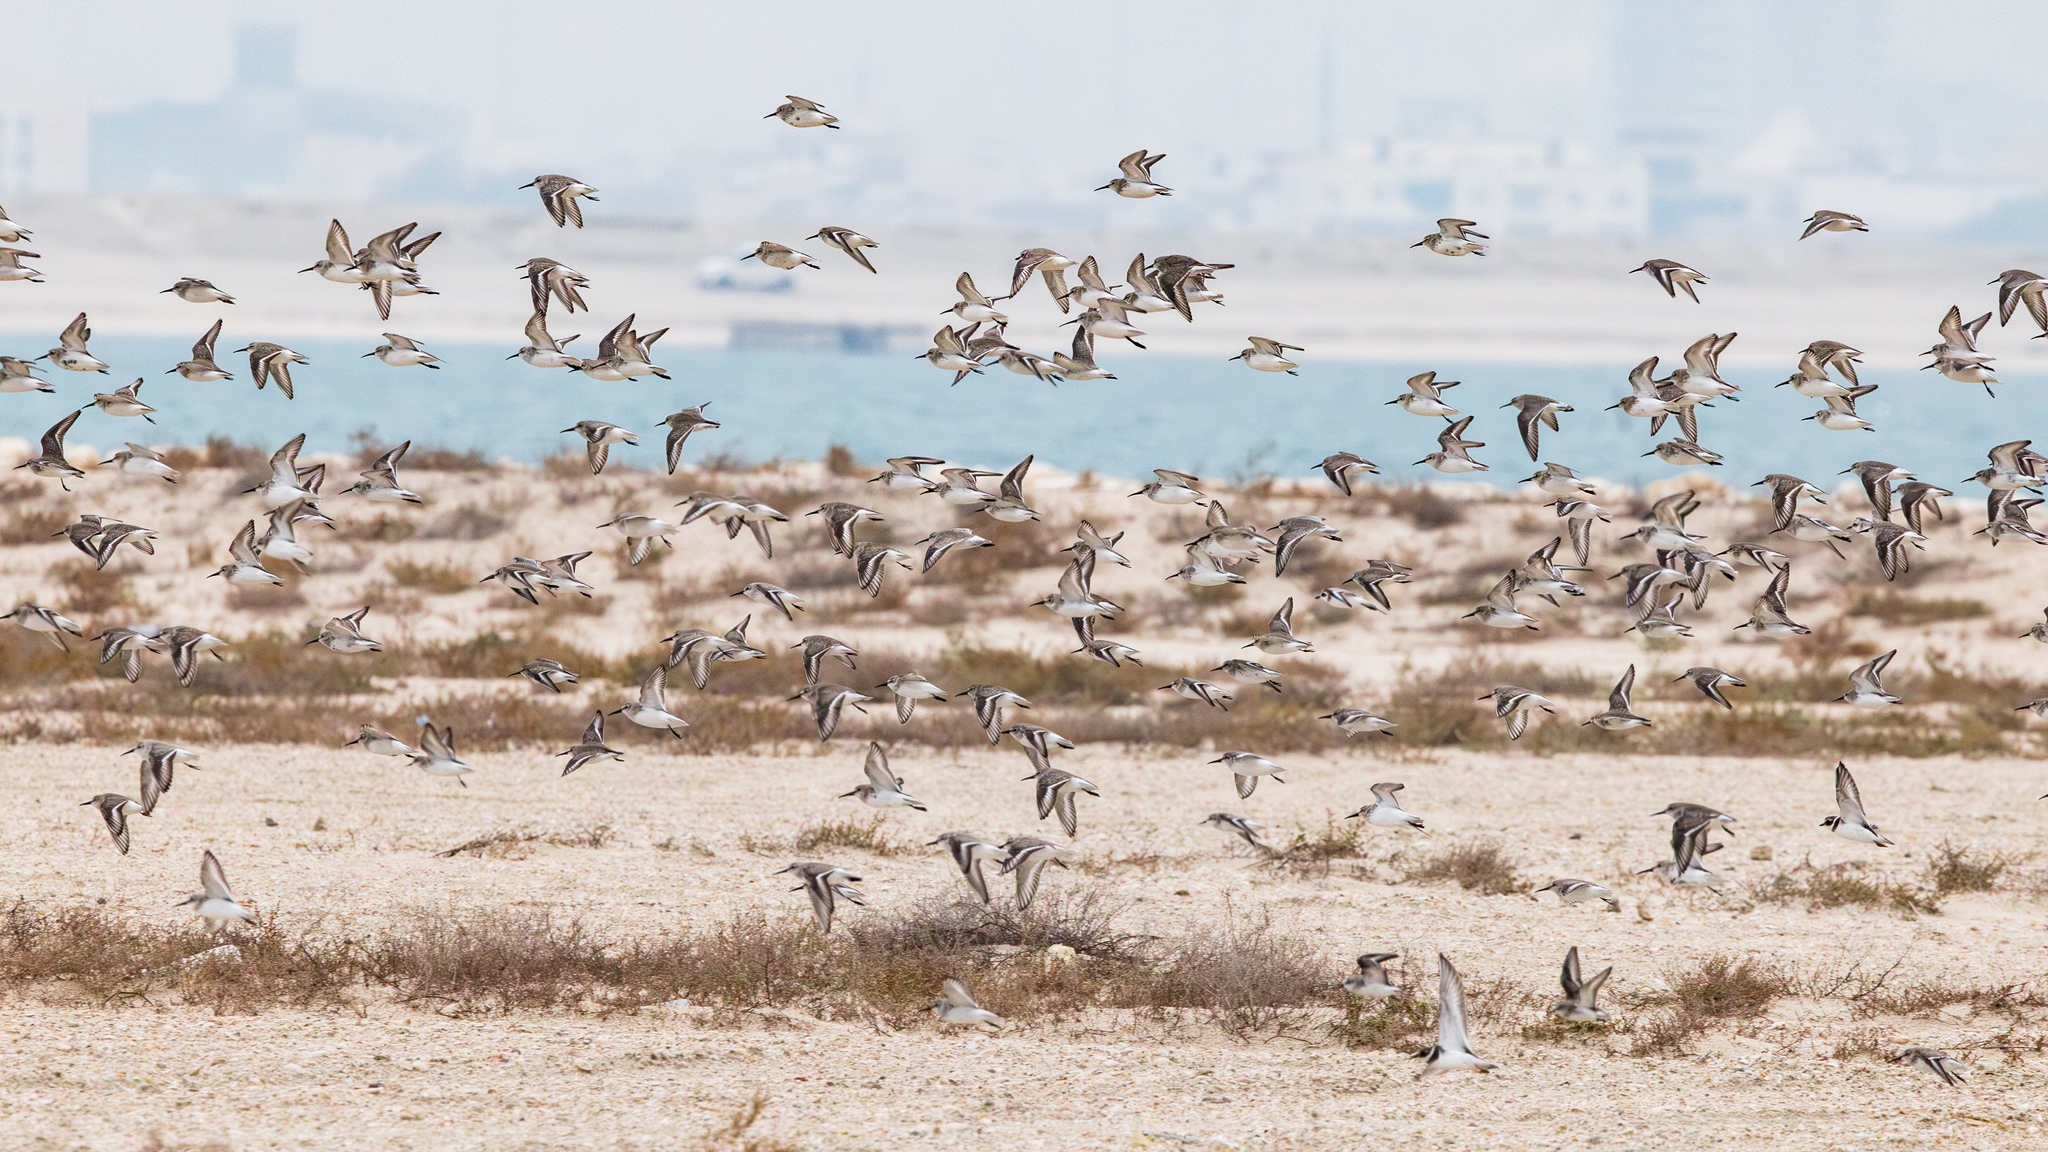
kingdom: Animalia
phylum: Chordata
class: Aves
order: Charadriiformes
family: Scolopacidae
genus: Calidris
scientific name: Calidris alpina
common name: Dunlin
